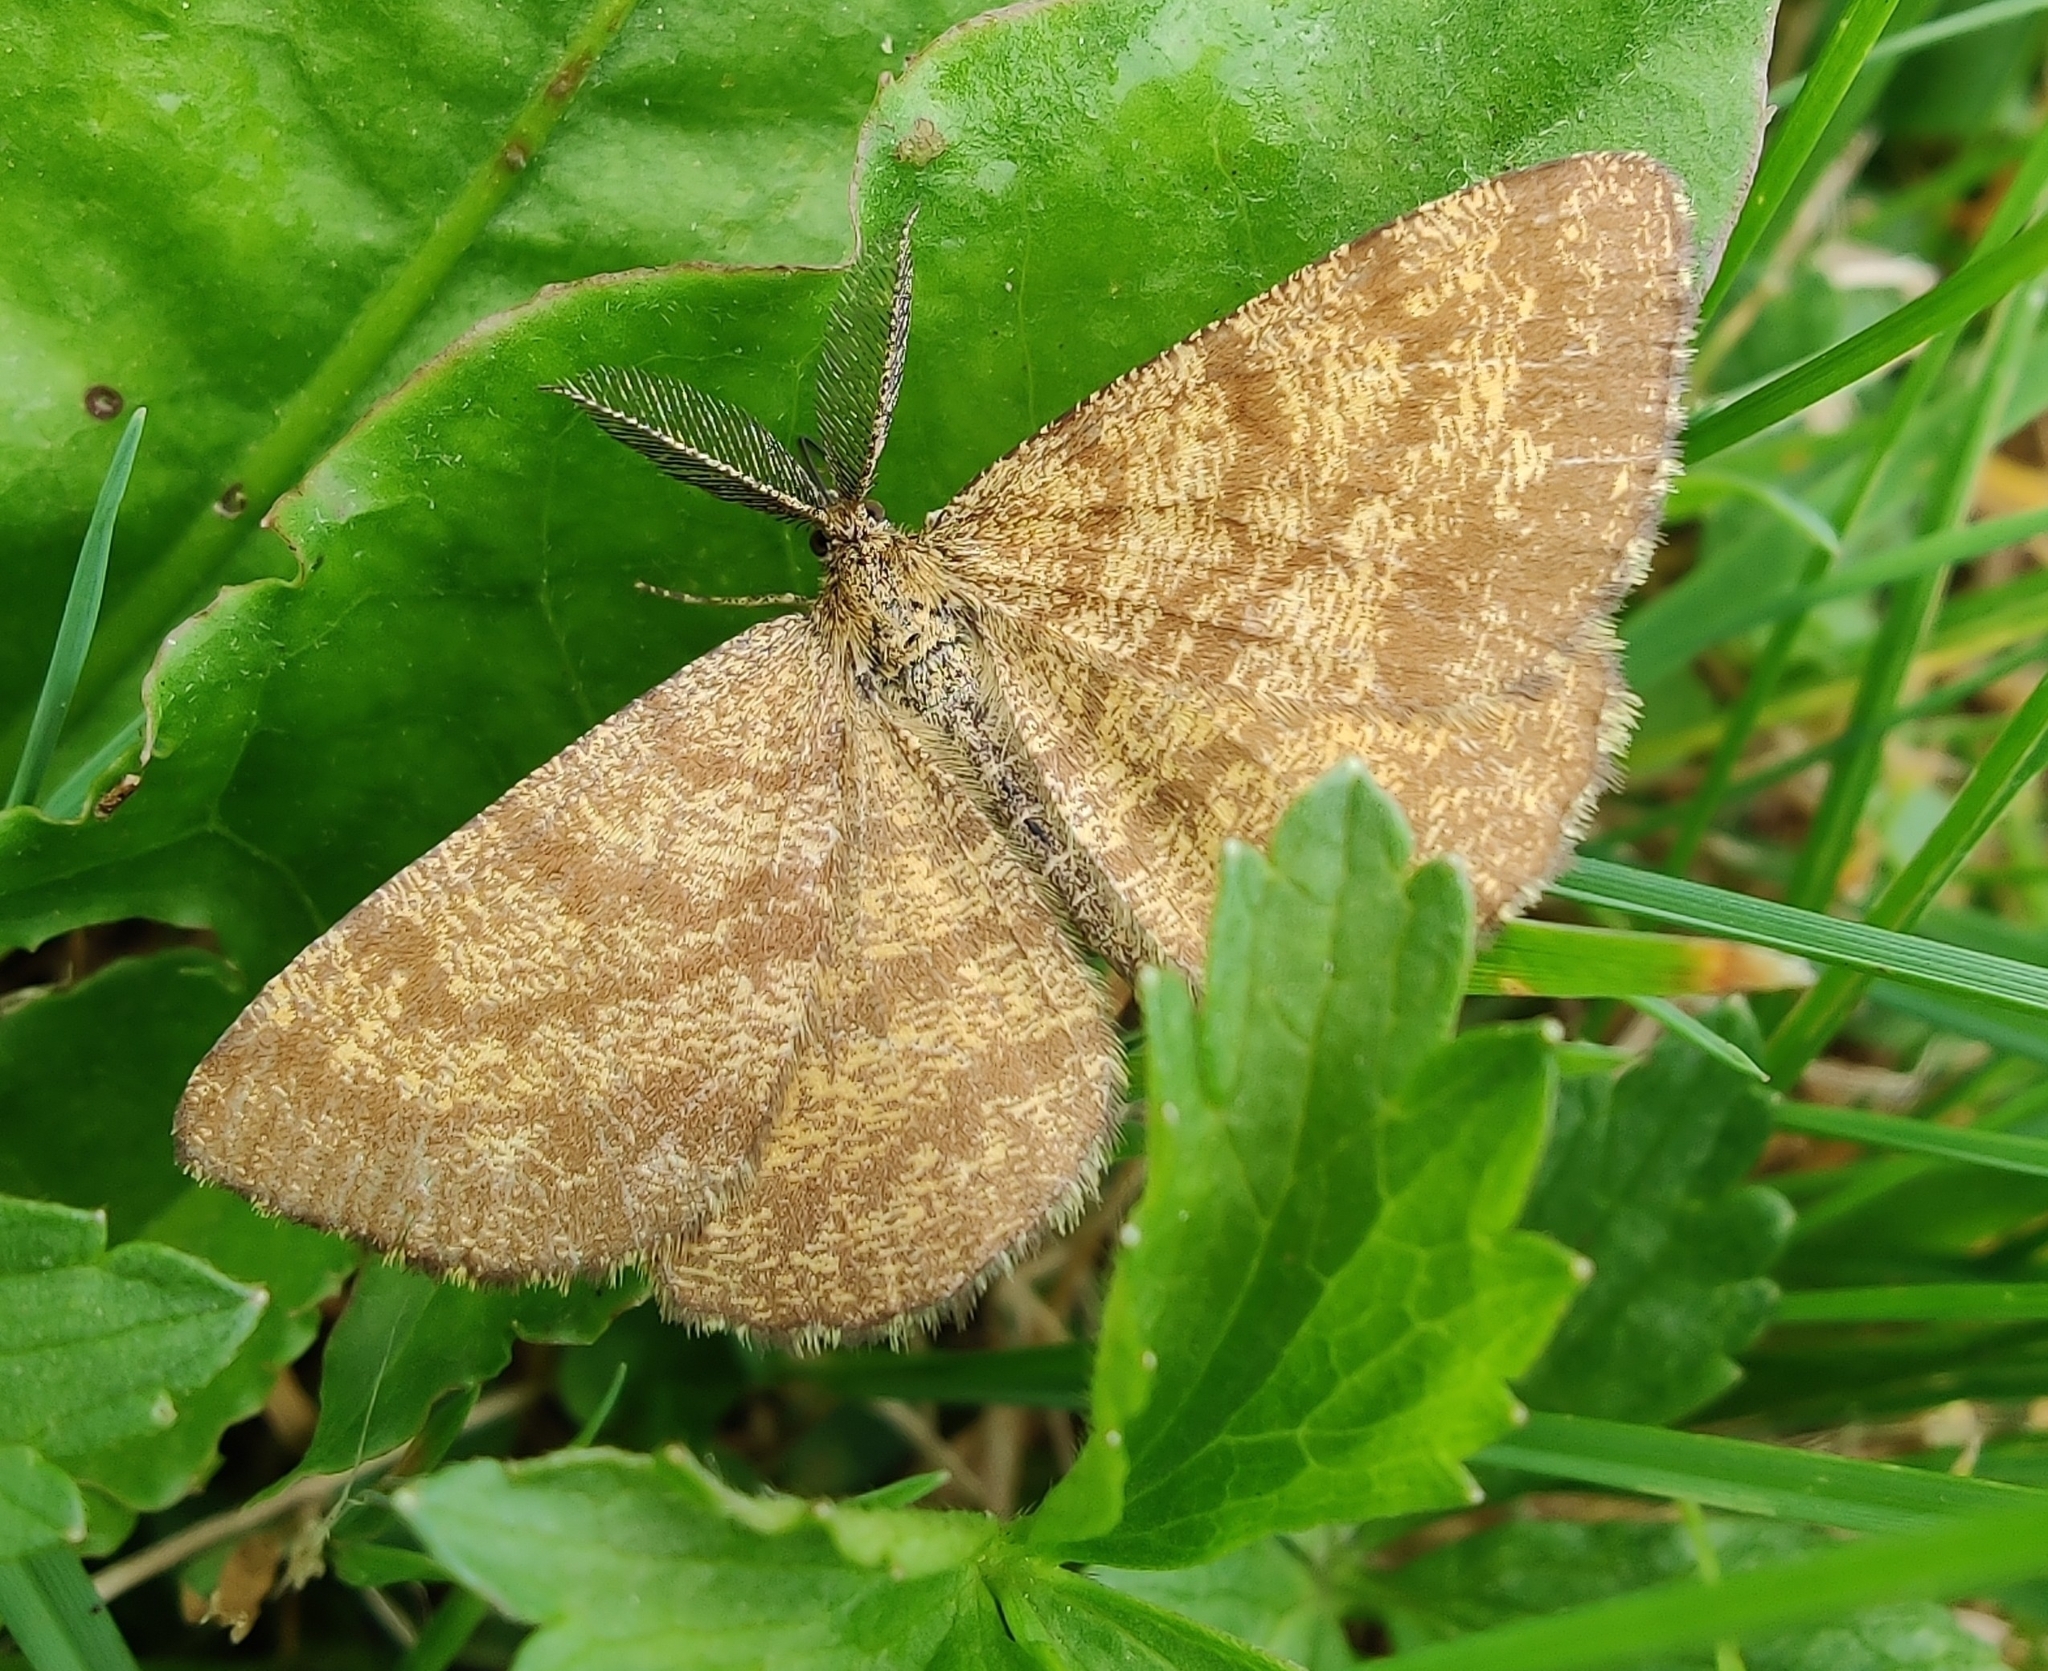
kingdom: Animalia
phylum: Arthropoda
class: Insecta
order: Lepidoptera
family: Geometridae
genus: Ematurga
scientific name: Ematurga atomaria
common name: Common heath
